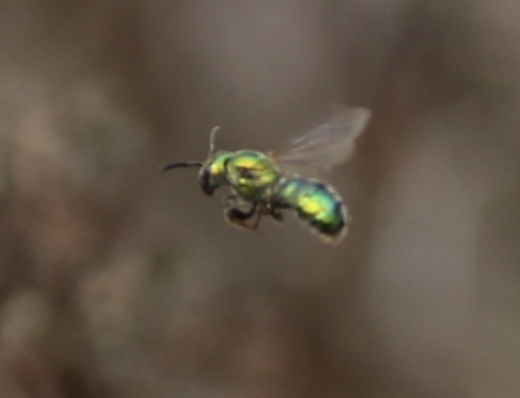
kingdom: Animalia
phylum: Arthropoda
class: Insecta
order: Hymenoptera
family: Halictidae
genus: Augochlorella
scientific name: Augochlorella pomoniella
